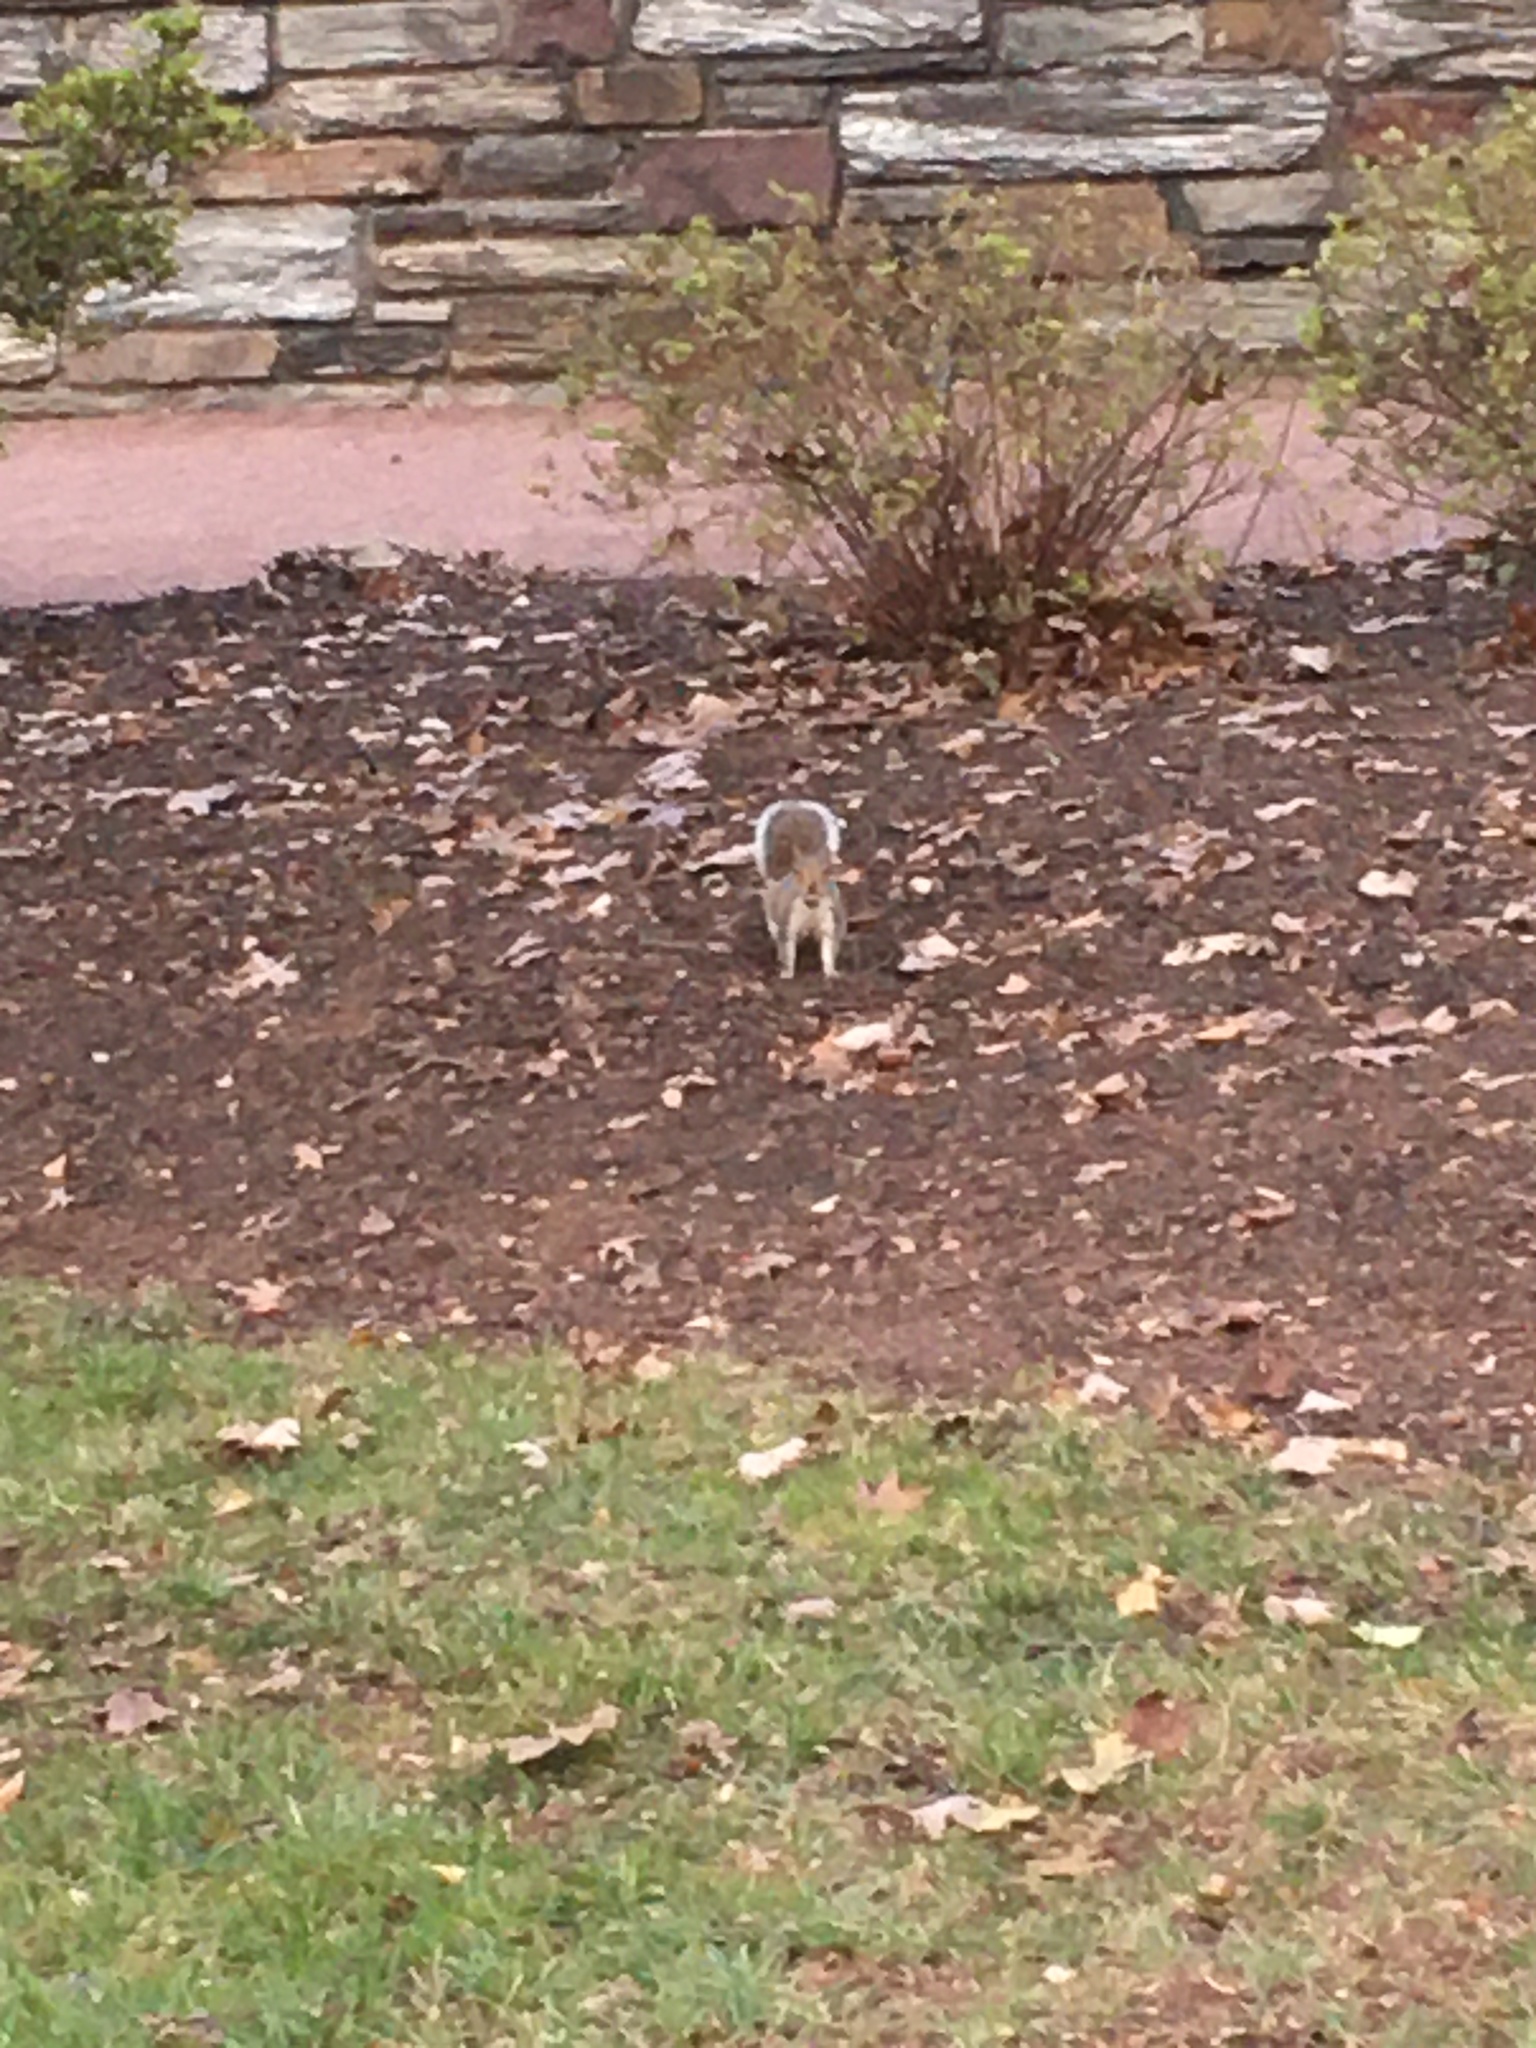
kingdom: Animalia
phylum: Chordata
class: Mammalia
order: Rodentia
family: Sciuridae
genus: Sciurus
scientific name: Sciurus carolinensis
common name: Eastern gray squirrel
